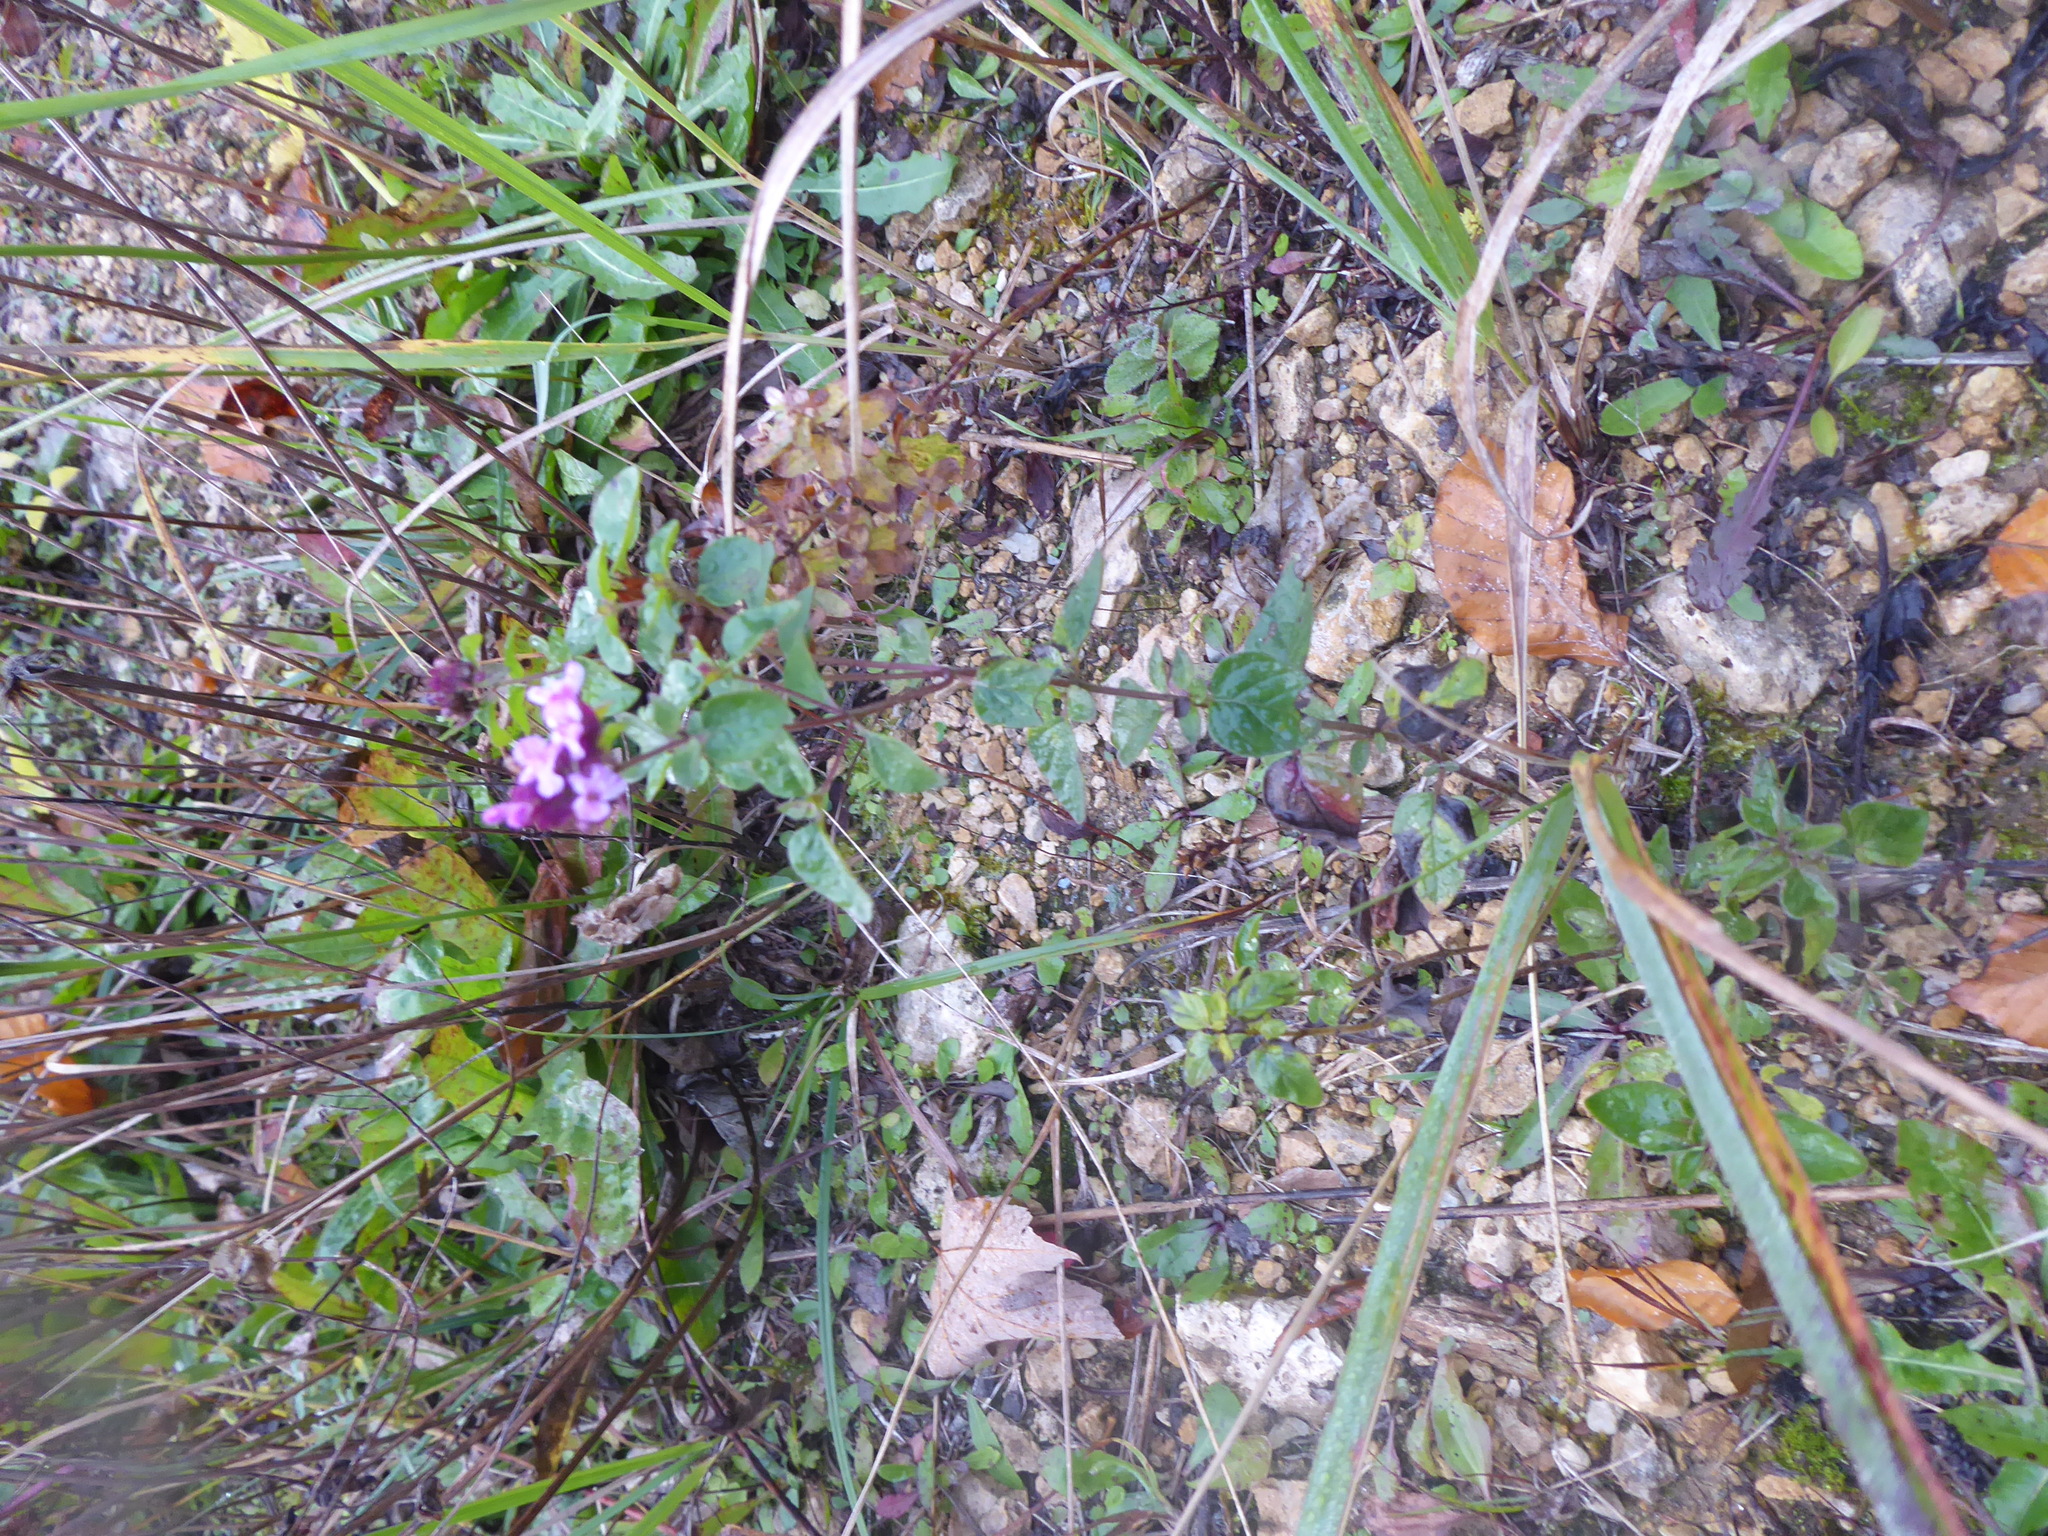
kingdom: Plantae
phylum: Tracheophyta
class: Magnoliopsida
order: Lamiales
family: Lamiaceae
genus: Origanum
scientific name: Origanum vulgare
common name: Wild marjoram
